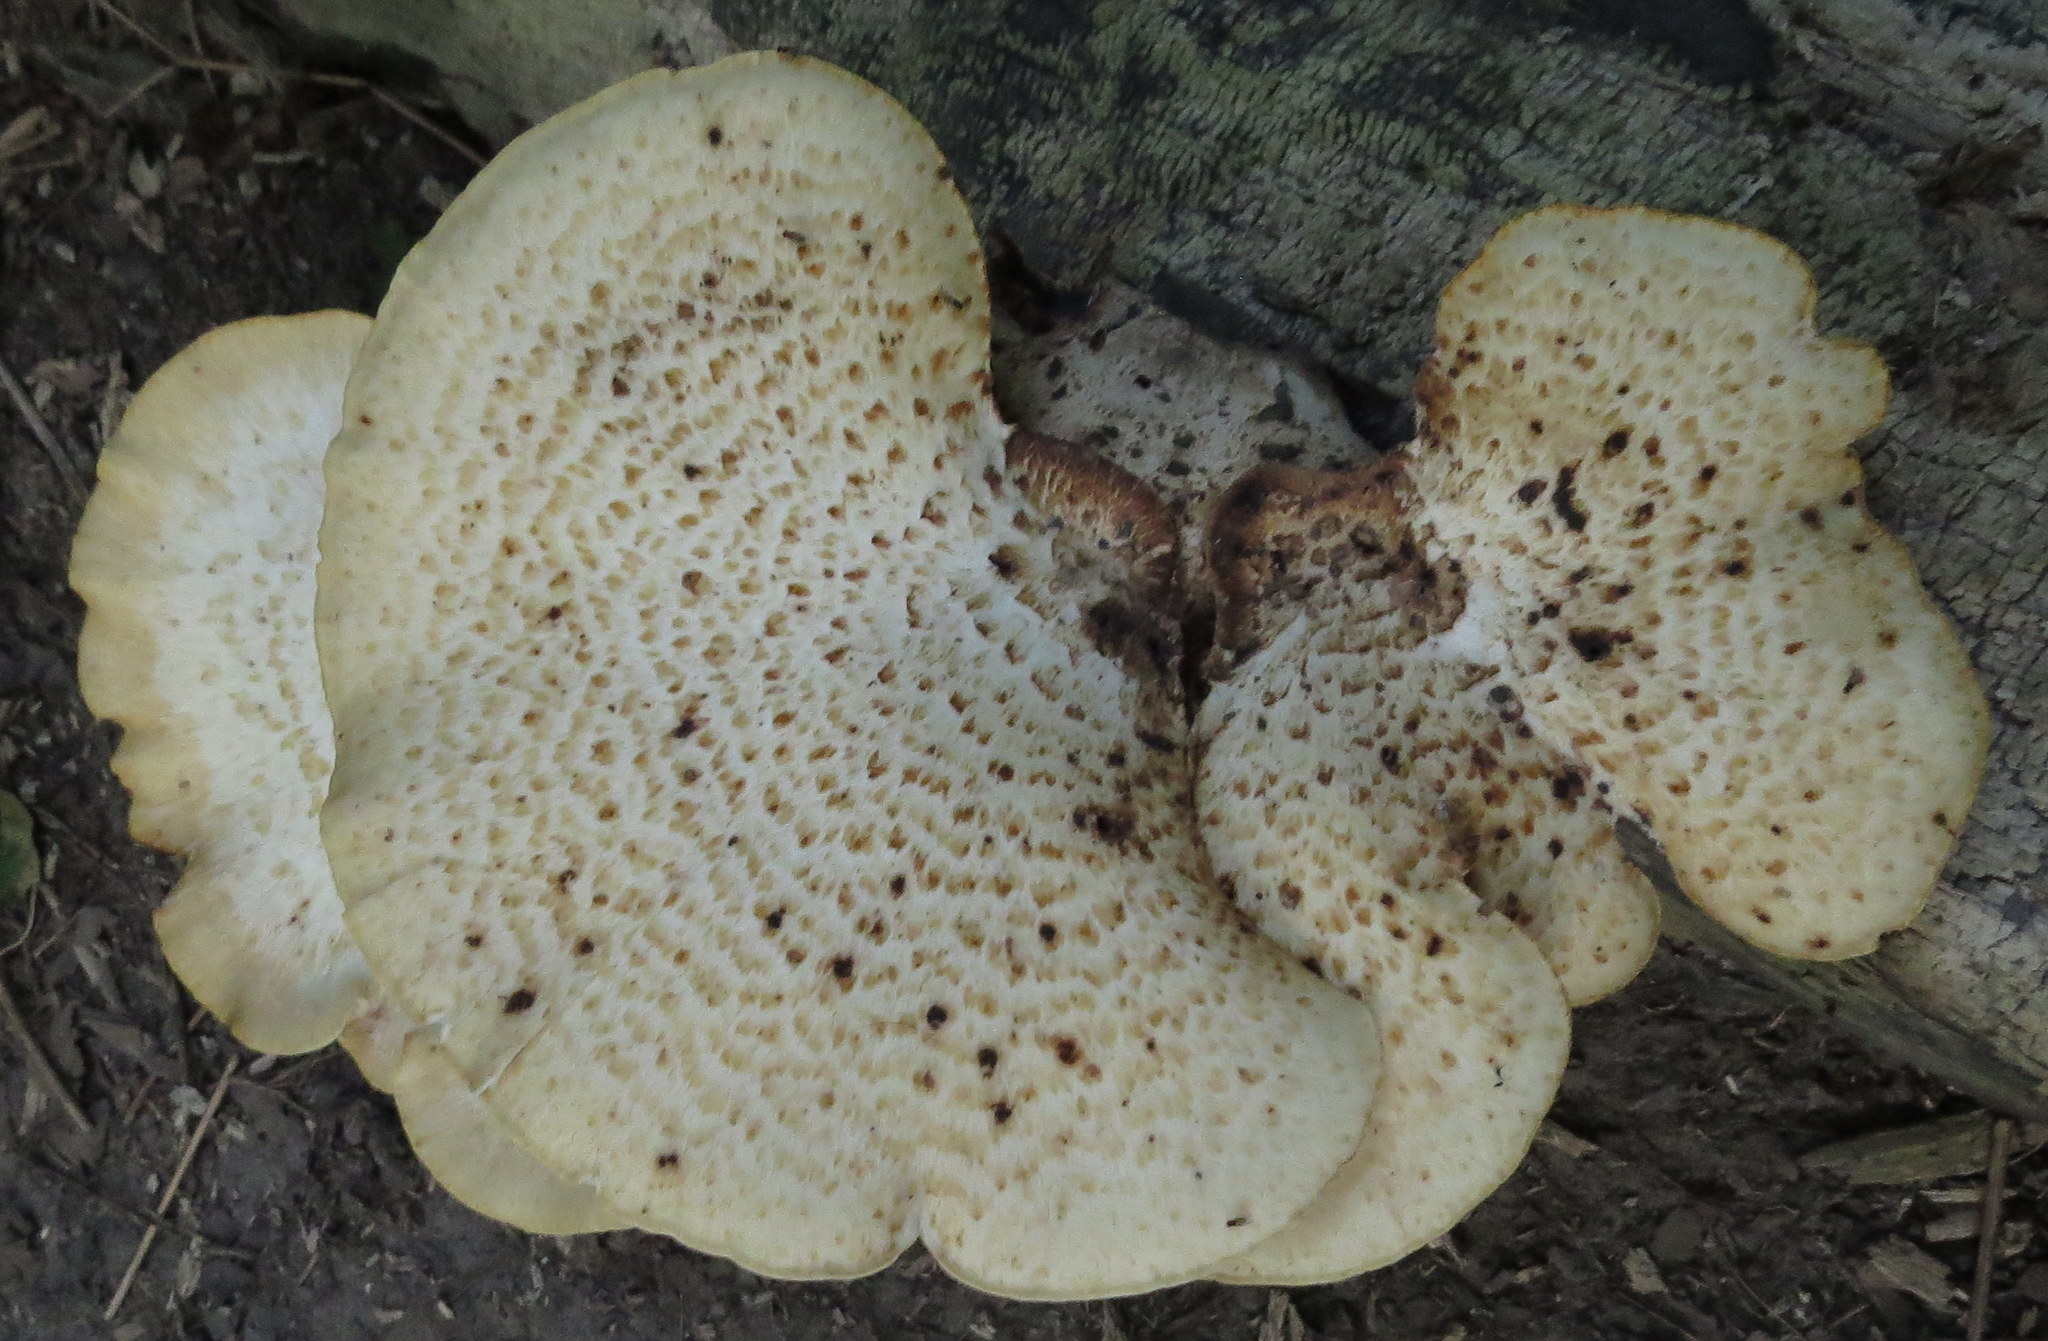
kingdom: Fungi
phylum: Basidiomycota
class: Agaricomycetes
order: Polyporales
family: Polyporaceae
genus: Cerioporus
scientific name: Cerioporus squamosus
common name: Dryad's saddle
